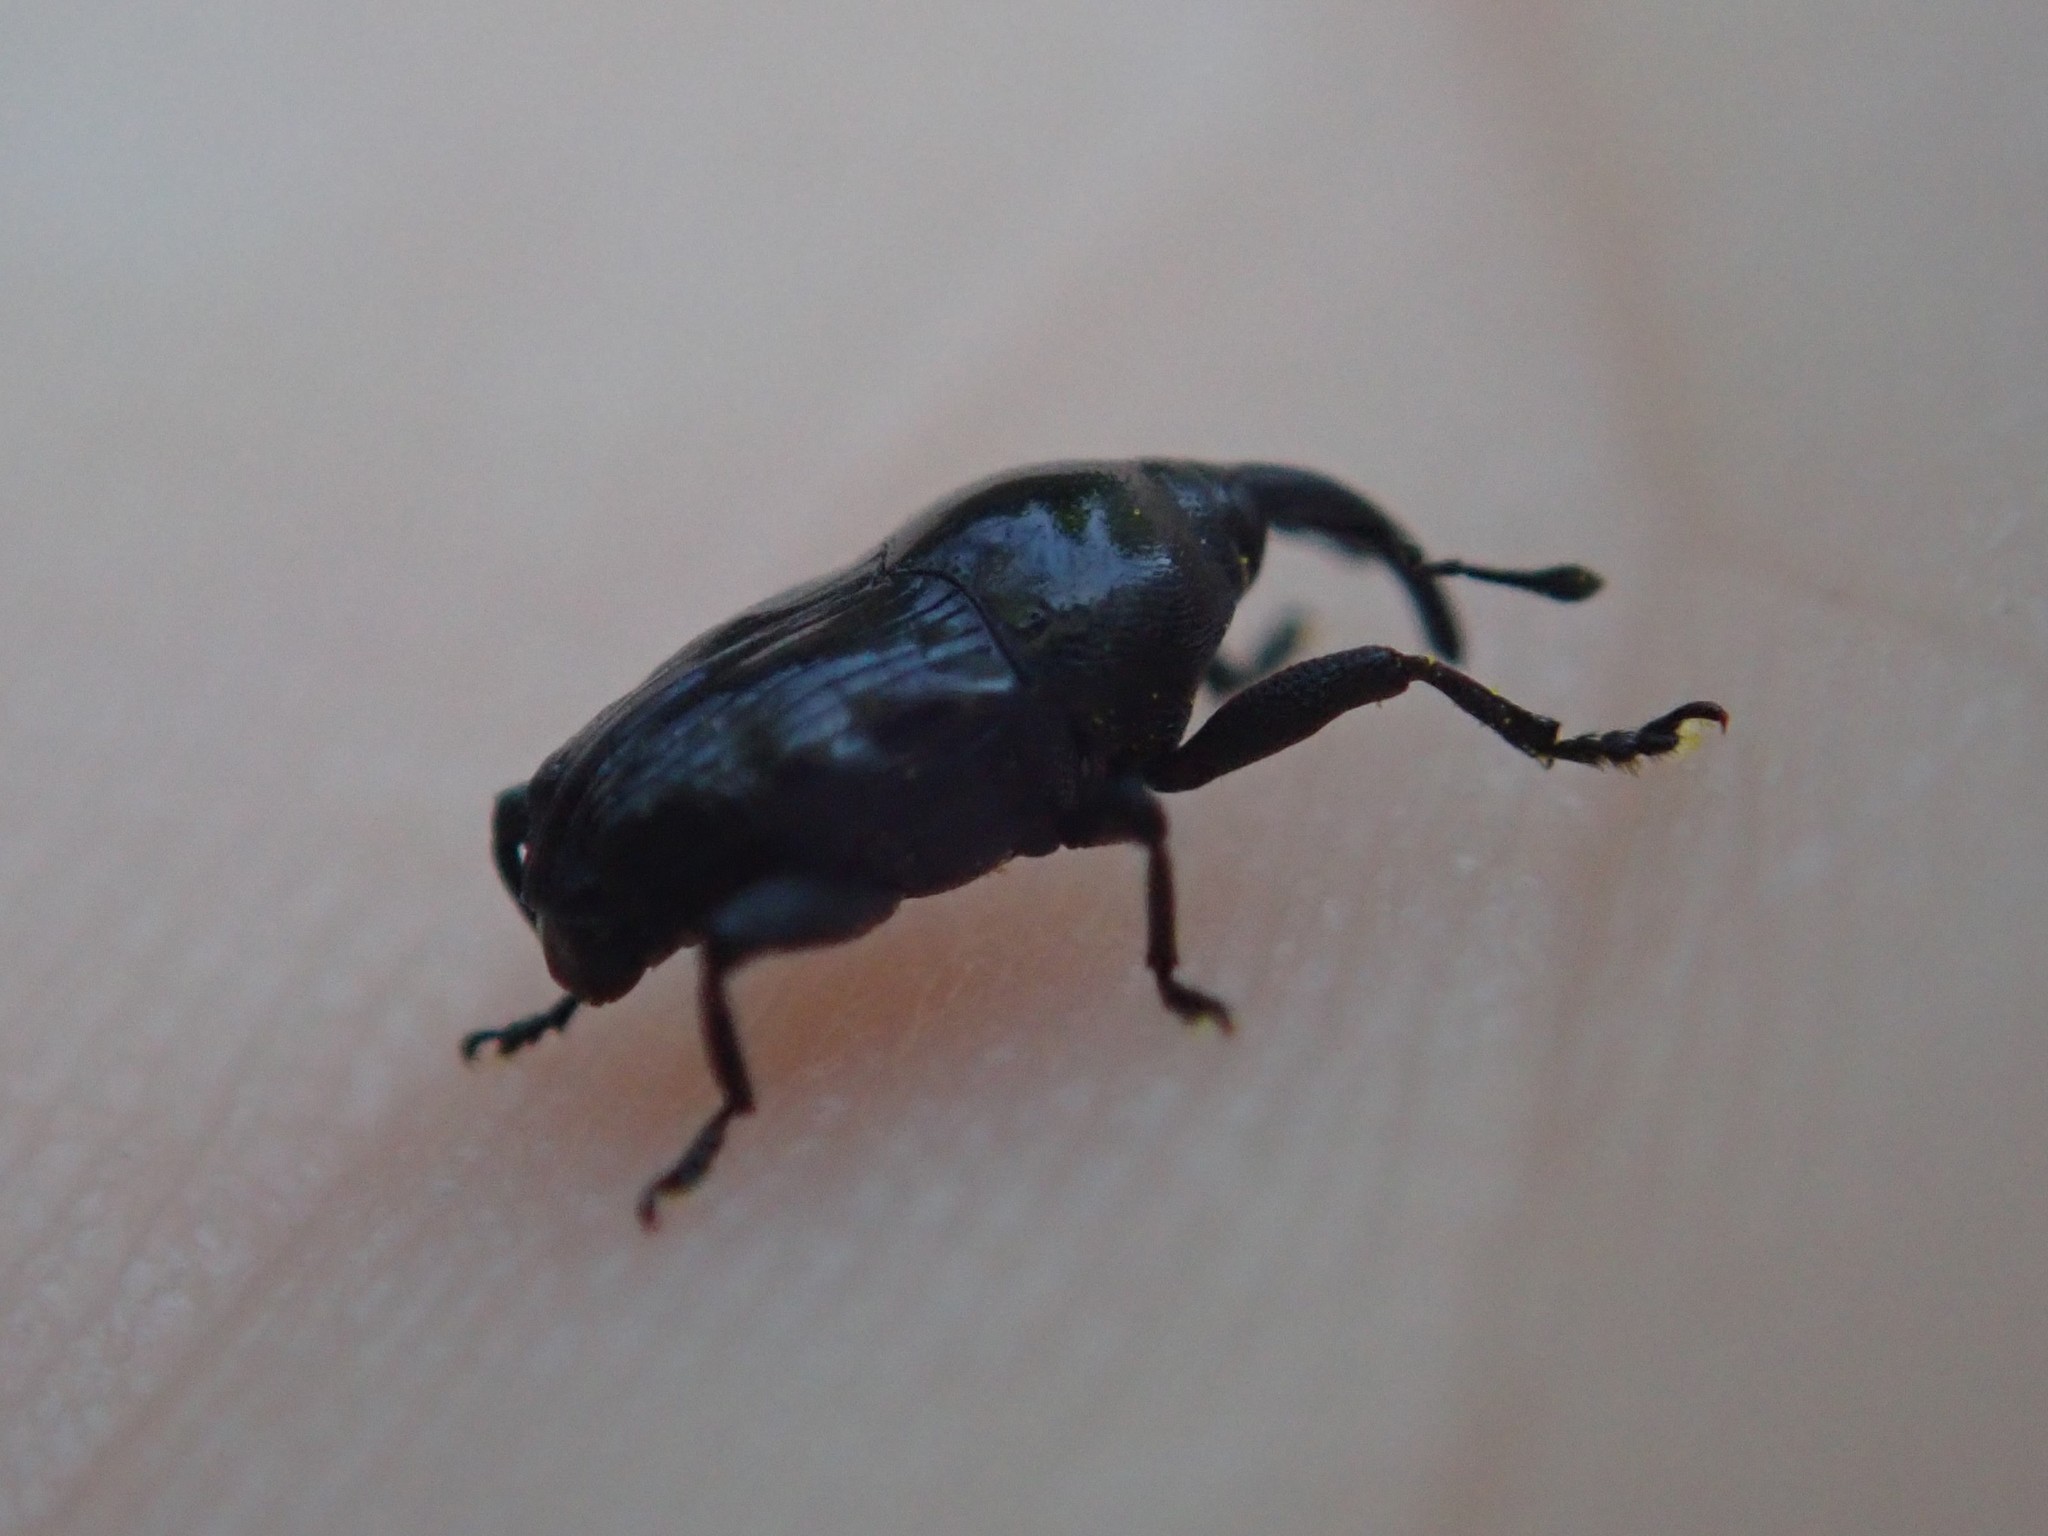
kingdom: Animalia
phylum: Arthropoda
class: Insecta
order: Coleoptera
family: Curculionidae
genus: Madarellus
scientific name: Madarellus undulatus
